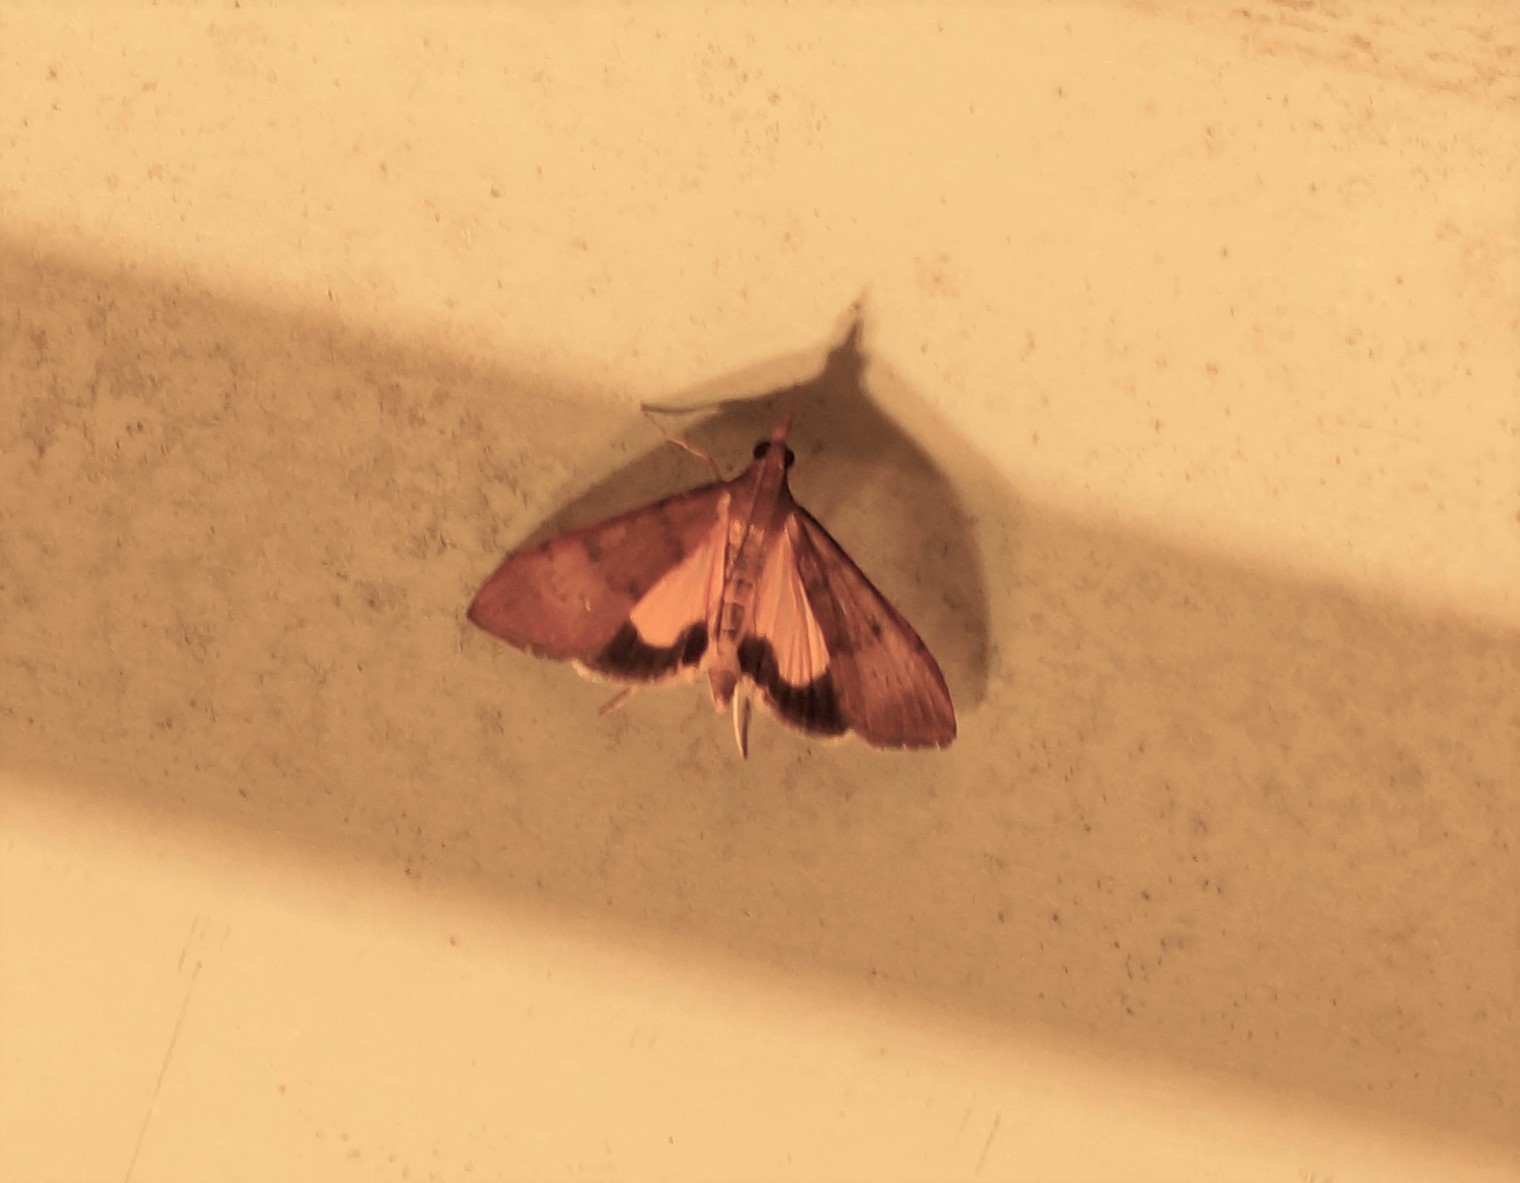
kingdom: Animalia
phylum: Arthropoda
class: Insecta
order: Lepidoptera
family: Crambidae
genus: Uresiphita
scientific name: Uresiphita ornithopteralis
